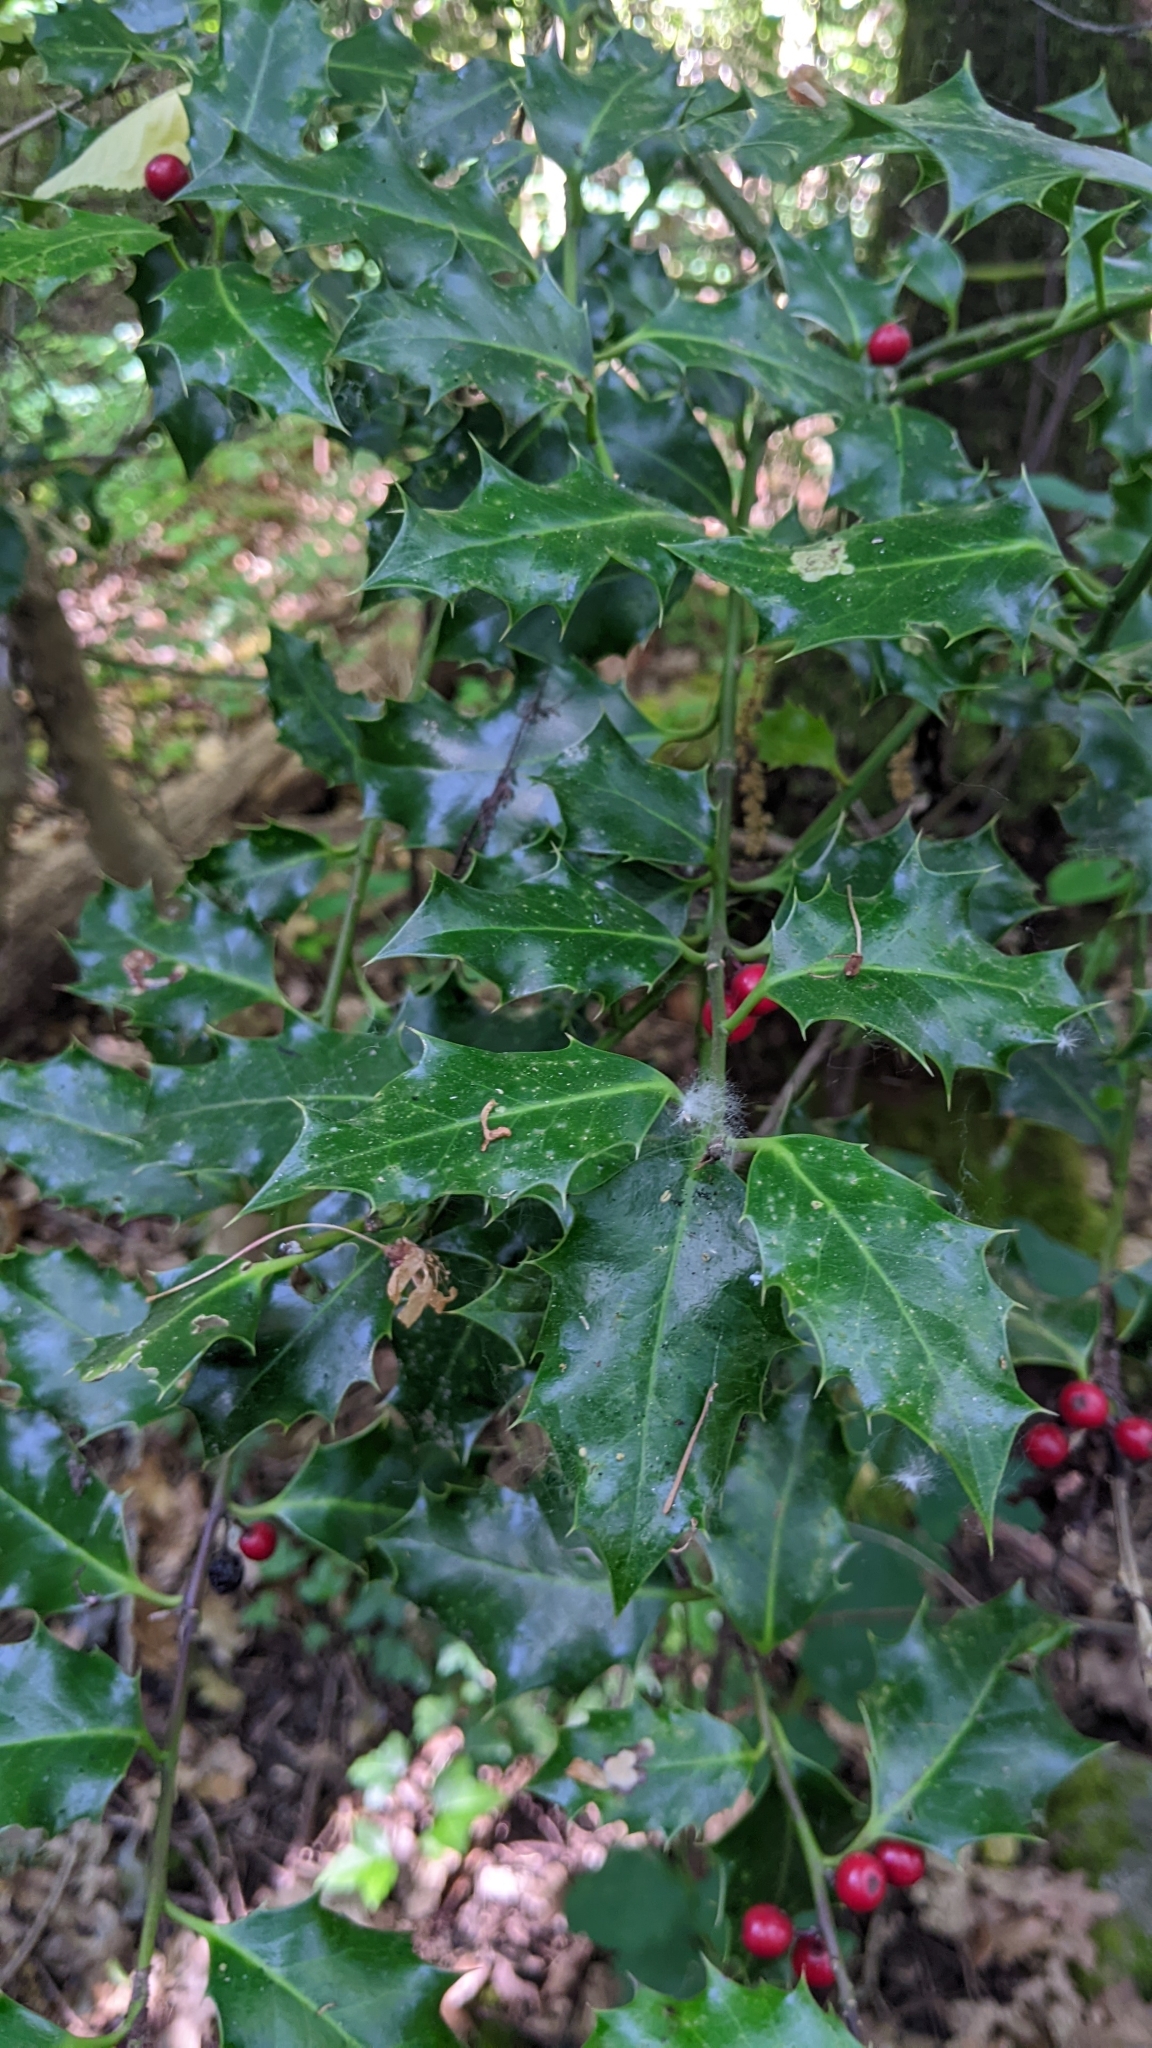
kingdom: Plantae
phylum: Tracheophyta
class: Magnoliopsida
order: Aquifoliales
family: Aquifoliaceae
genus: Ilex
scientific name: Ilex aquifolium
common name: English holly
